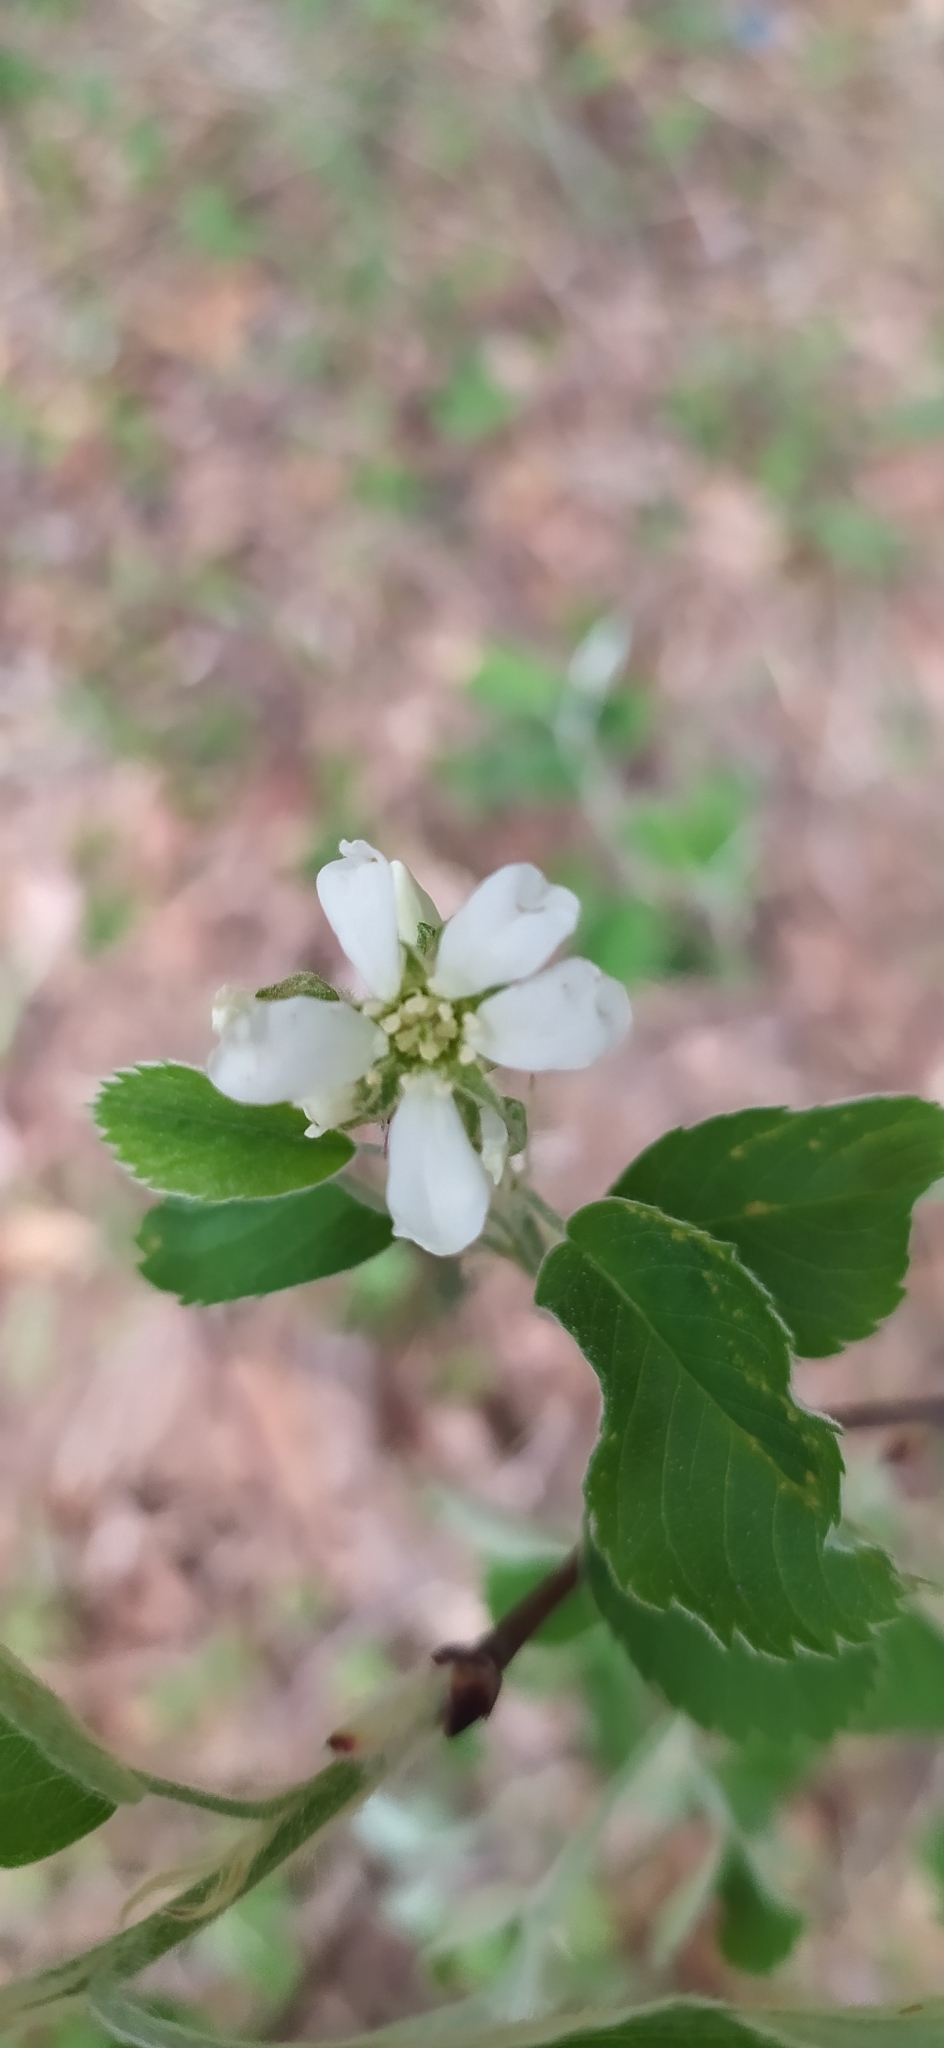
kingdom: Plantae
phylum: Tracheophyta
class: Magnoliopsida
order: Rosales
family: Rosaceae
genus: Amelanchier
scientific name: Amelanchier alnifolia
